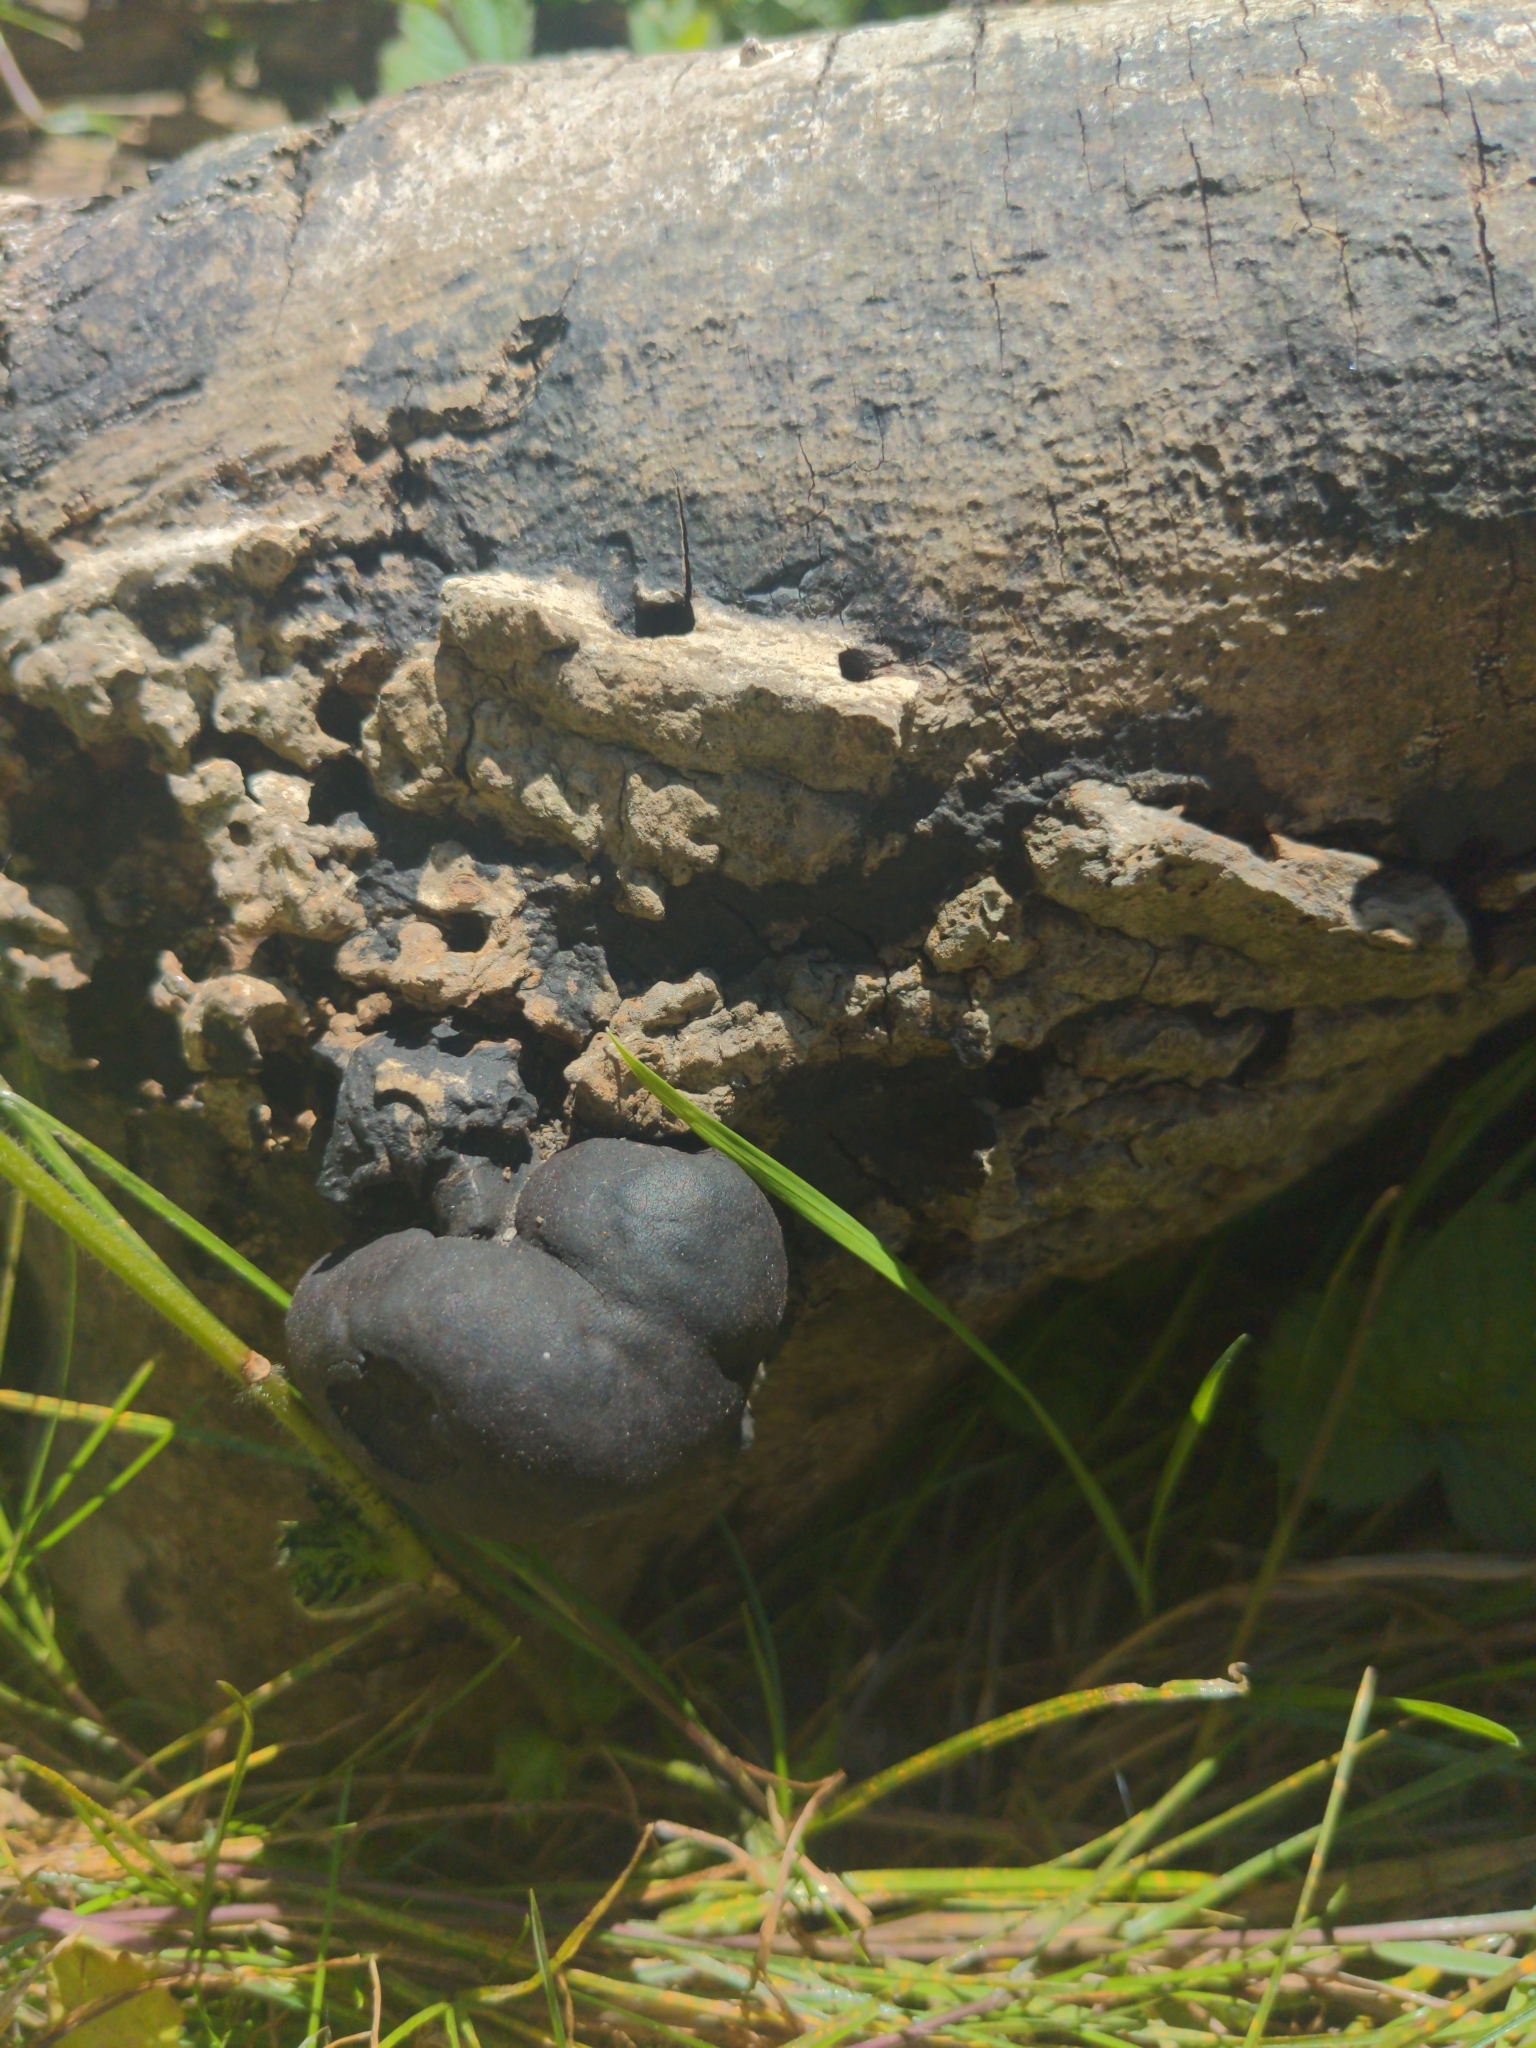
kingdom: Fungi
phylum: Ascomycota
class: Sordariomycetes
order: Xylariales
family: Hypoxylaceae
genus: Daldinia
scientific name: Daldinia concentrica
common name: Cramp balls
